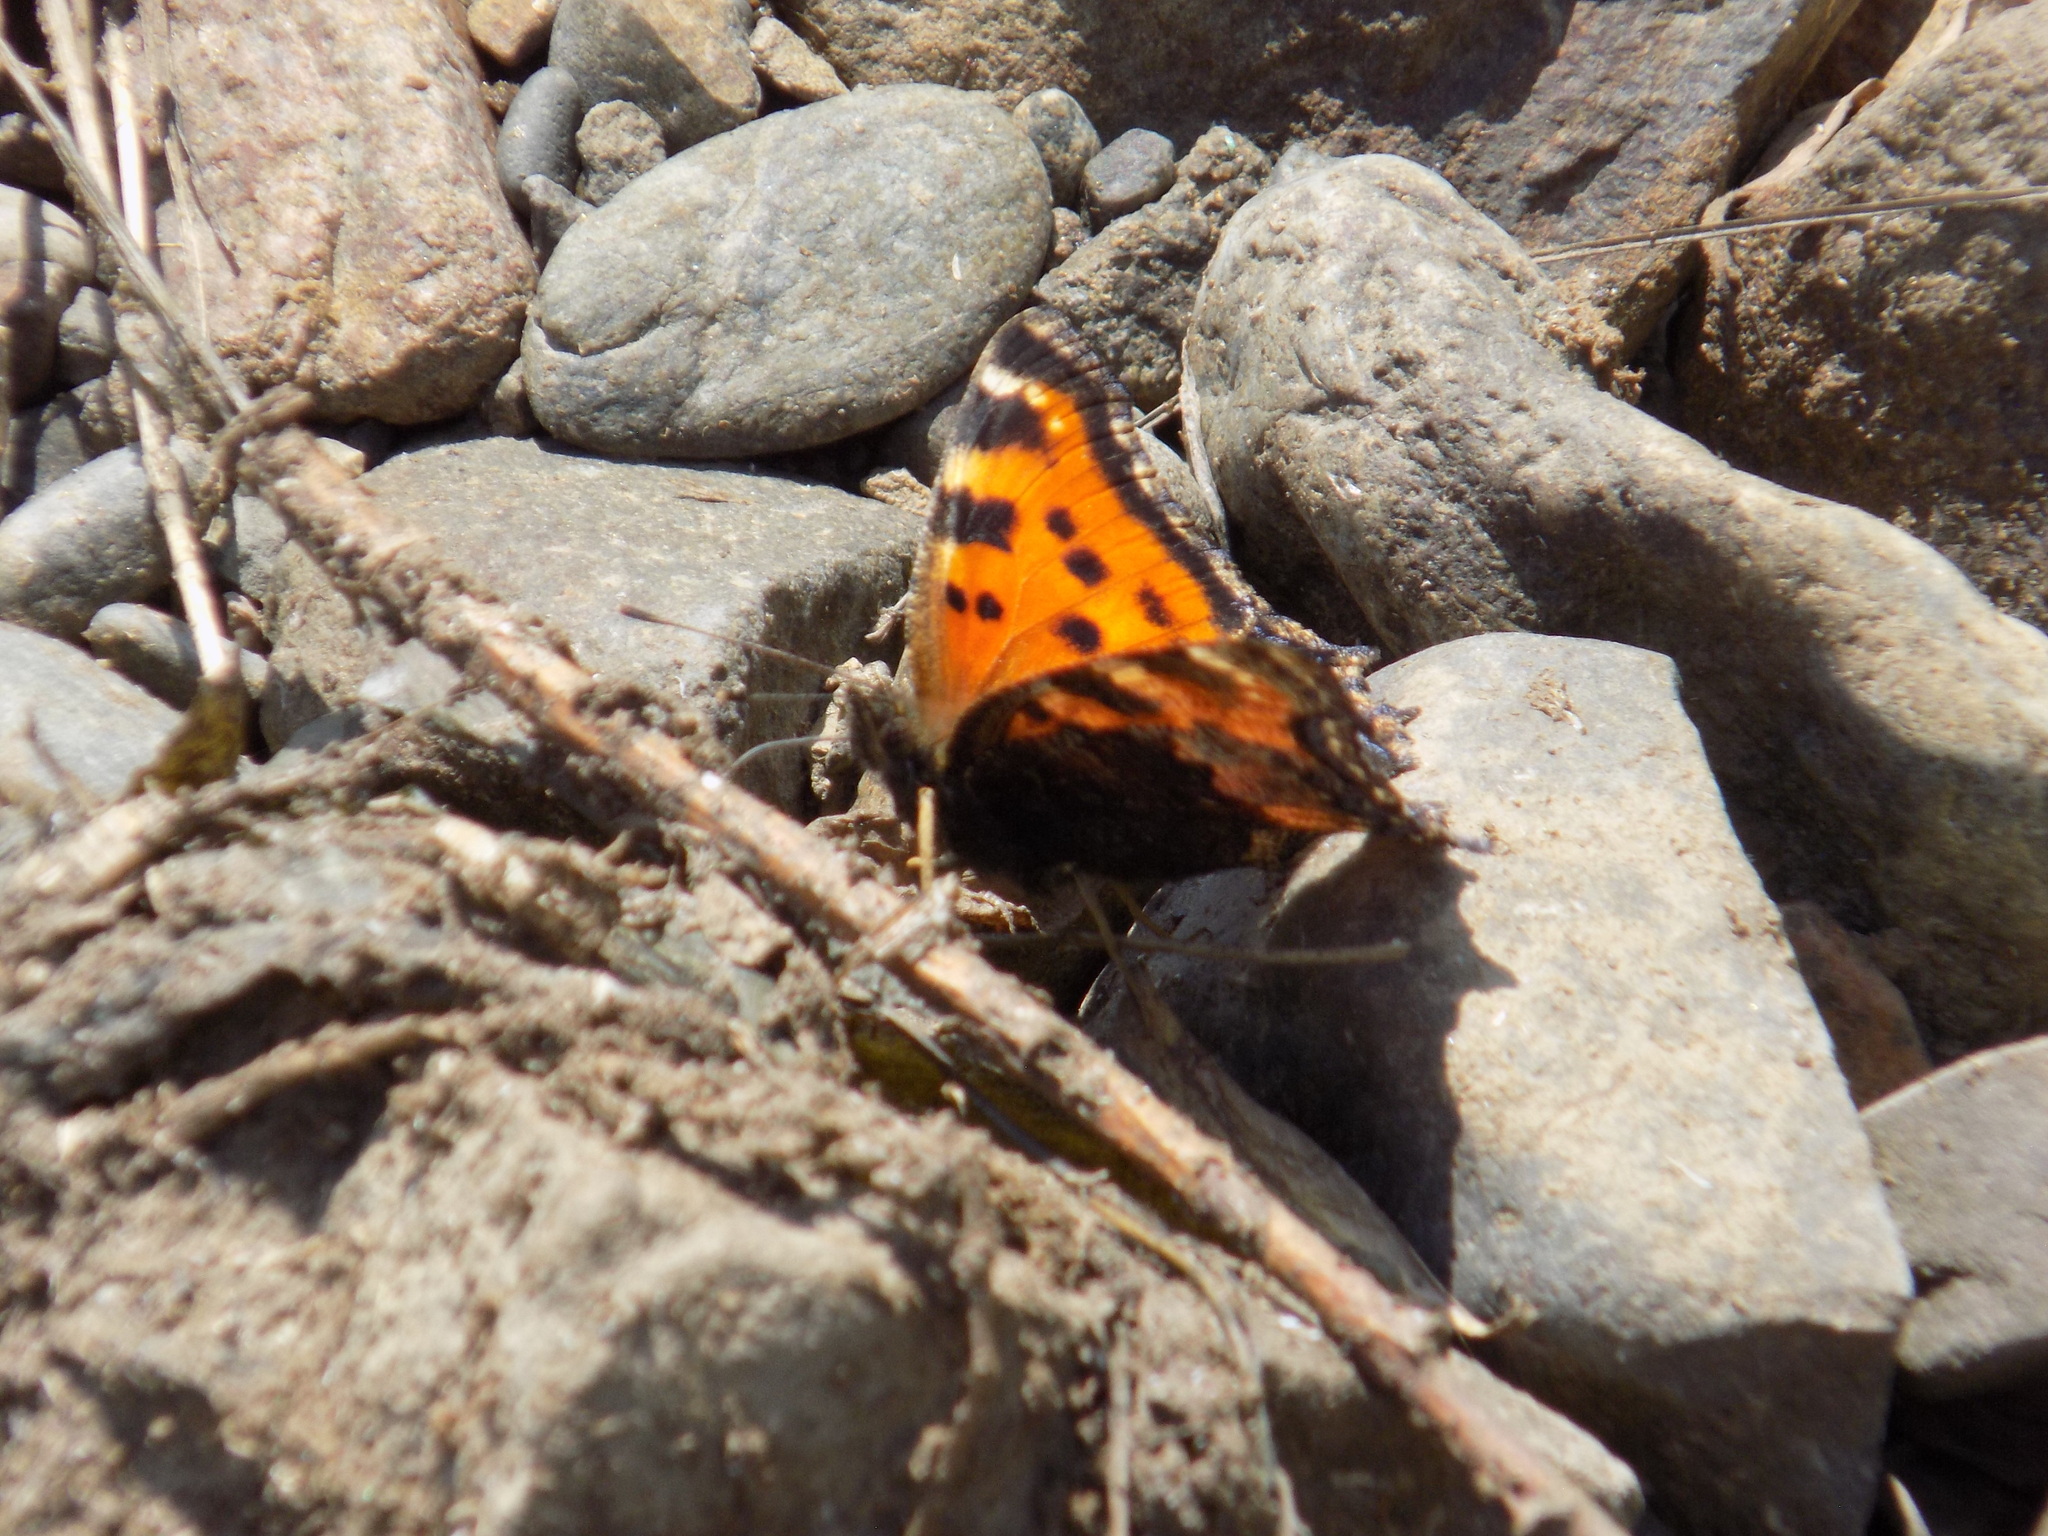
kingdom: Animalia
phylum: Arthropoda
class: Insecta
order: Lepidoptera
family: Nymphalidae
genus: Nymphalis
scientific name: Nymphalis xanthomelas
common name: Scarce tortoiseshell
